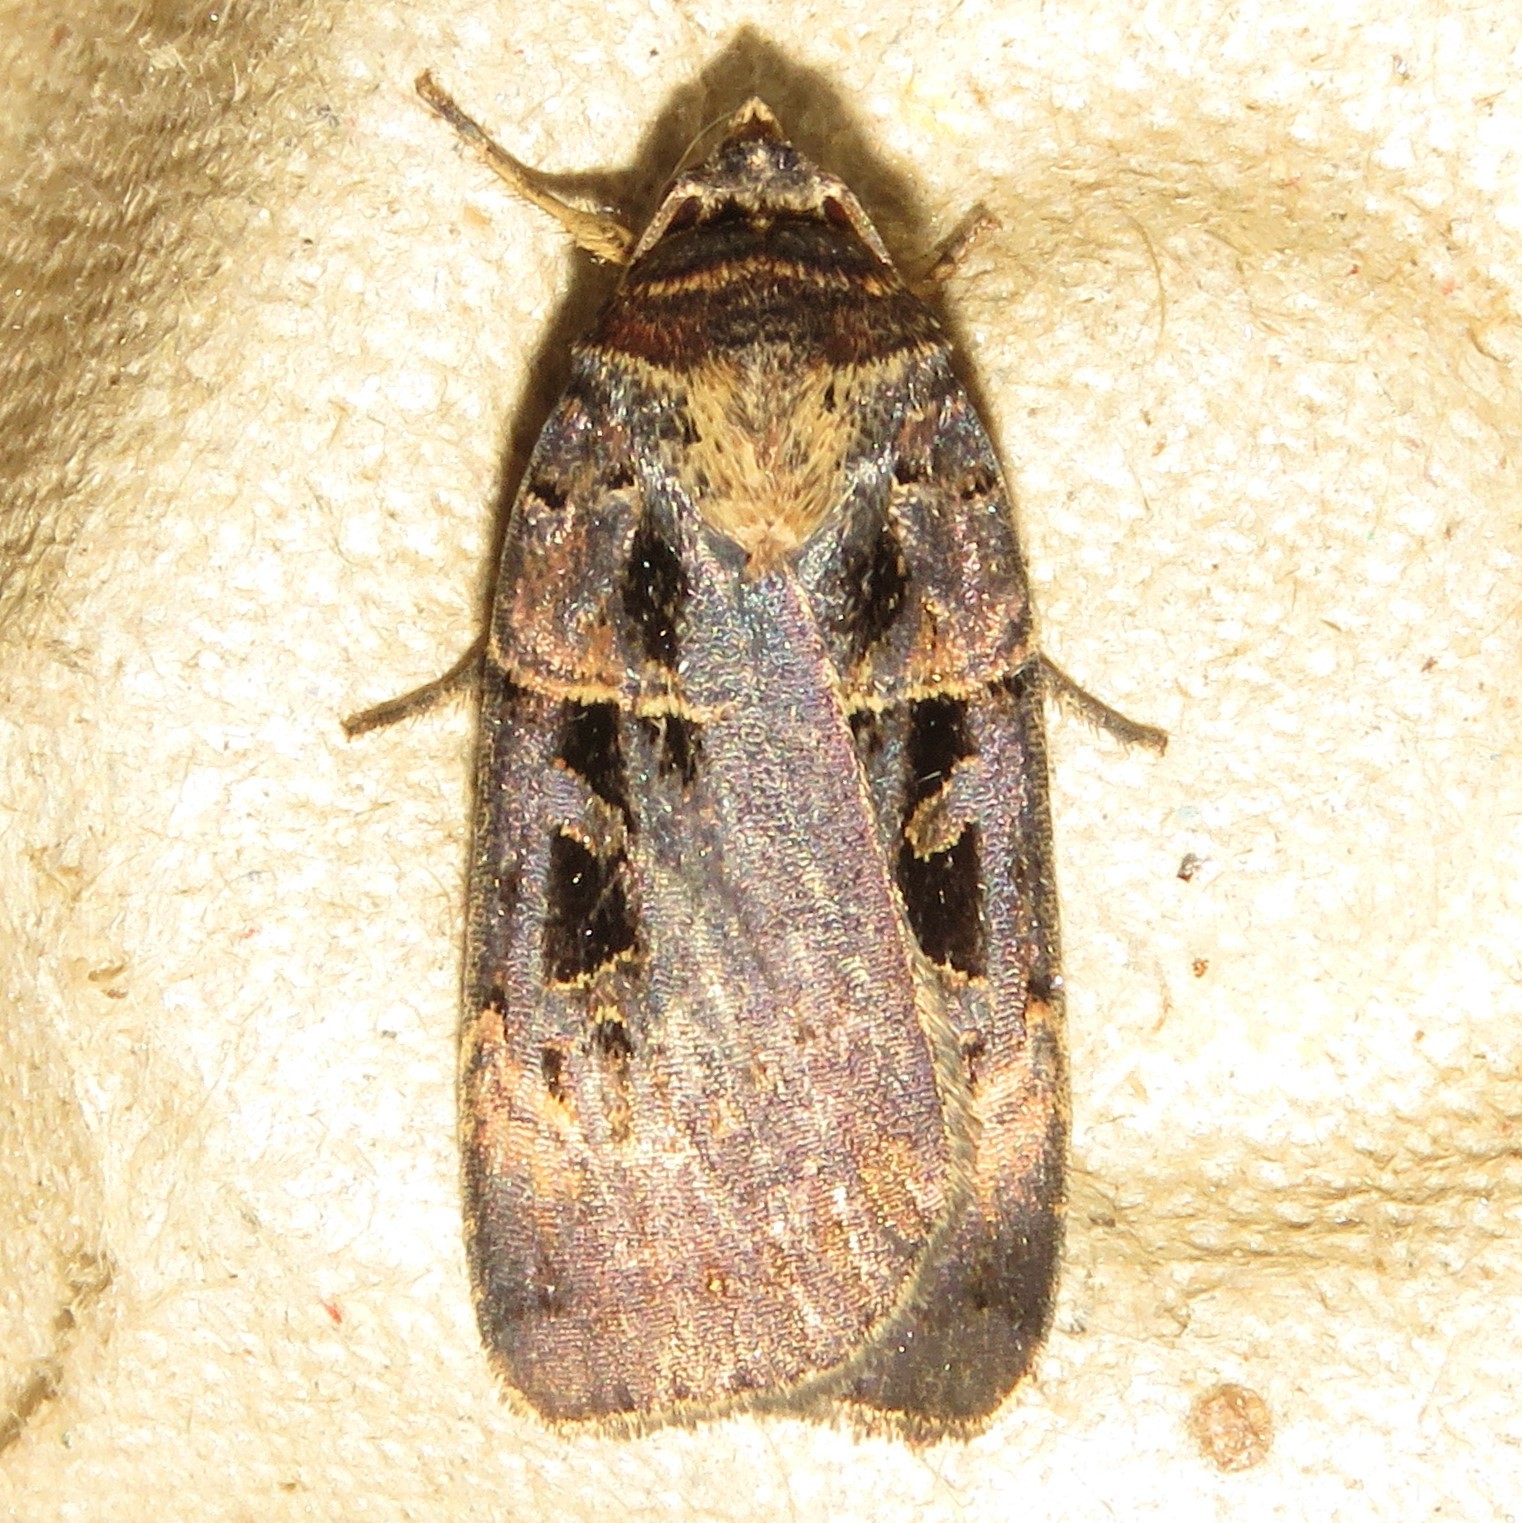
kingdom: Animalia
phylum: Arthropoda
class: Insecta
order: Lepidoptera
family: Noctuidae
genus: Pseudohermonassa
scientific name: Pseudohermonassa bicarnea
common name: Pink spotted dart
